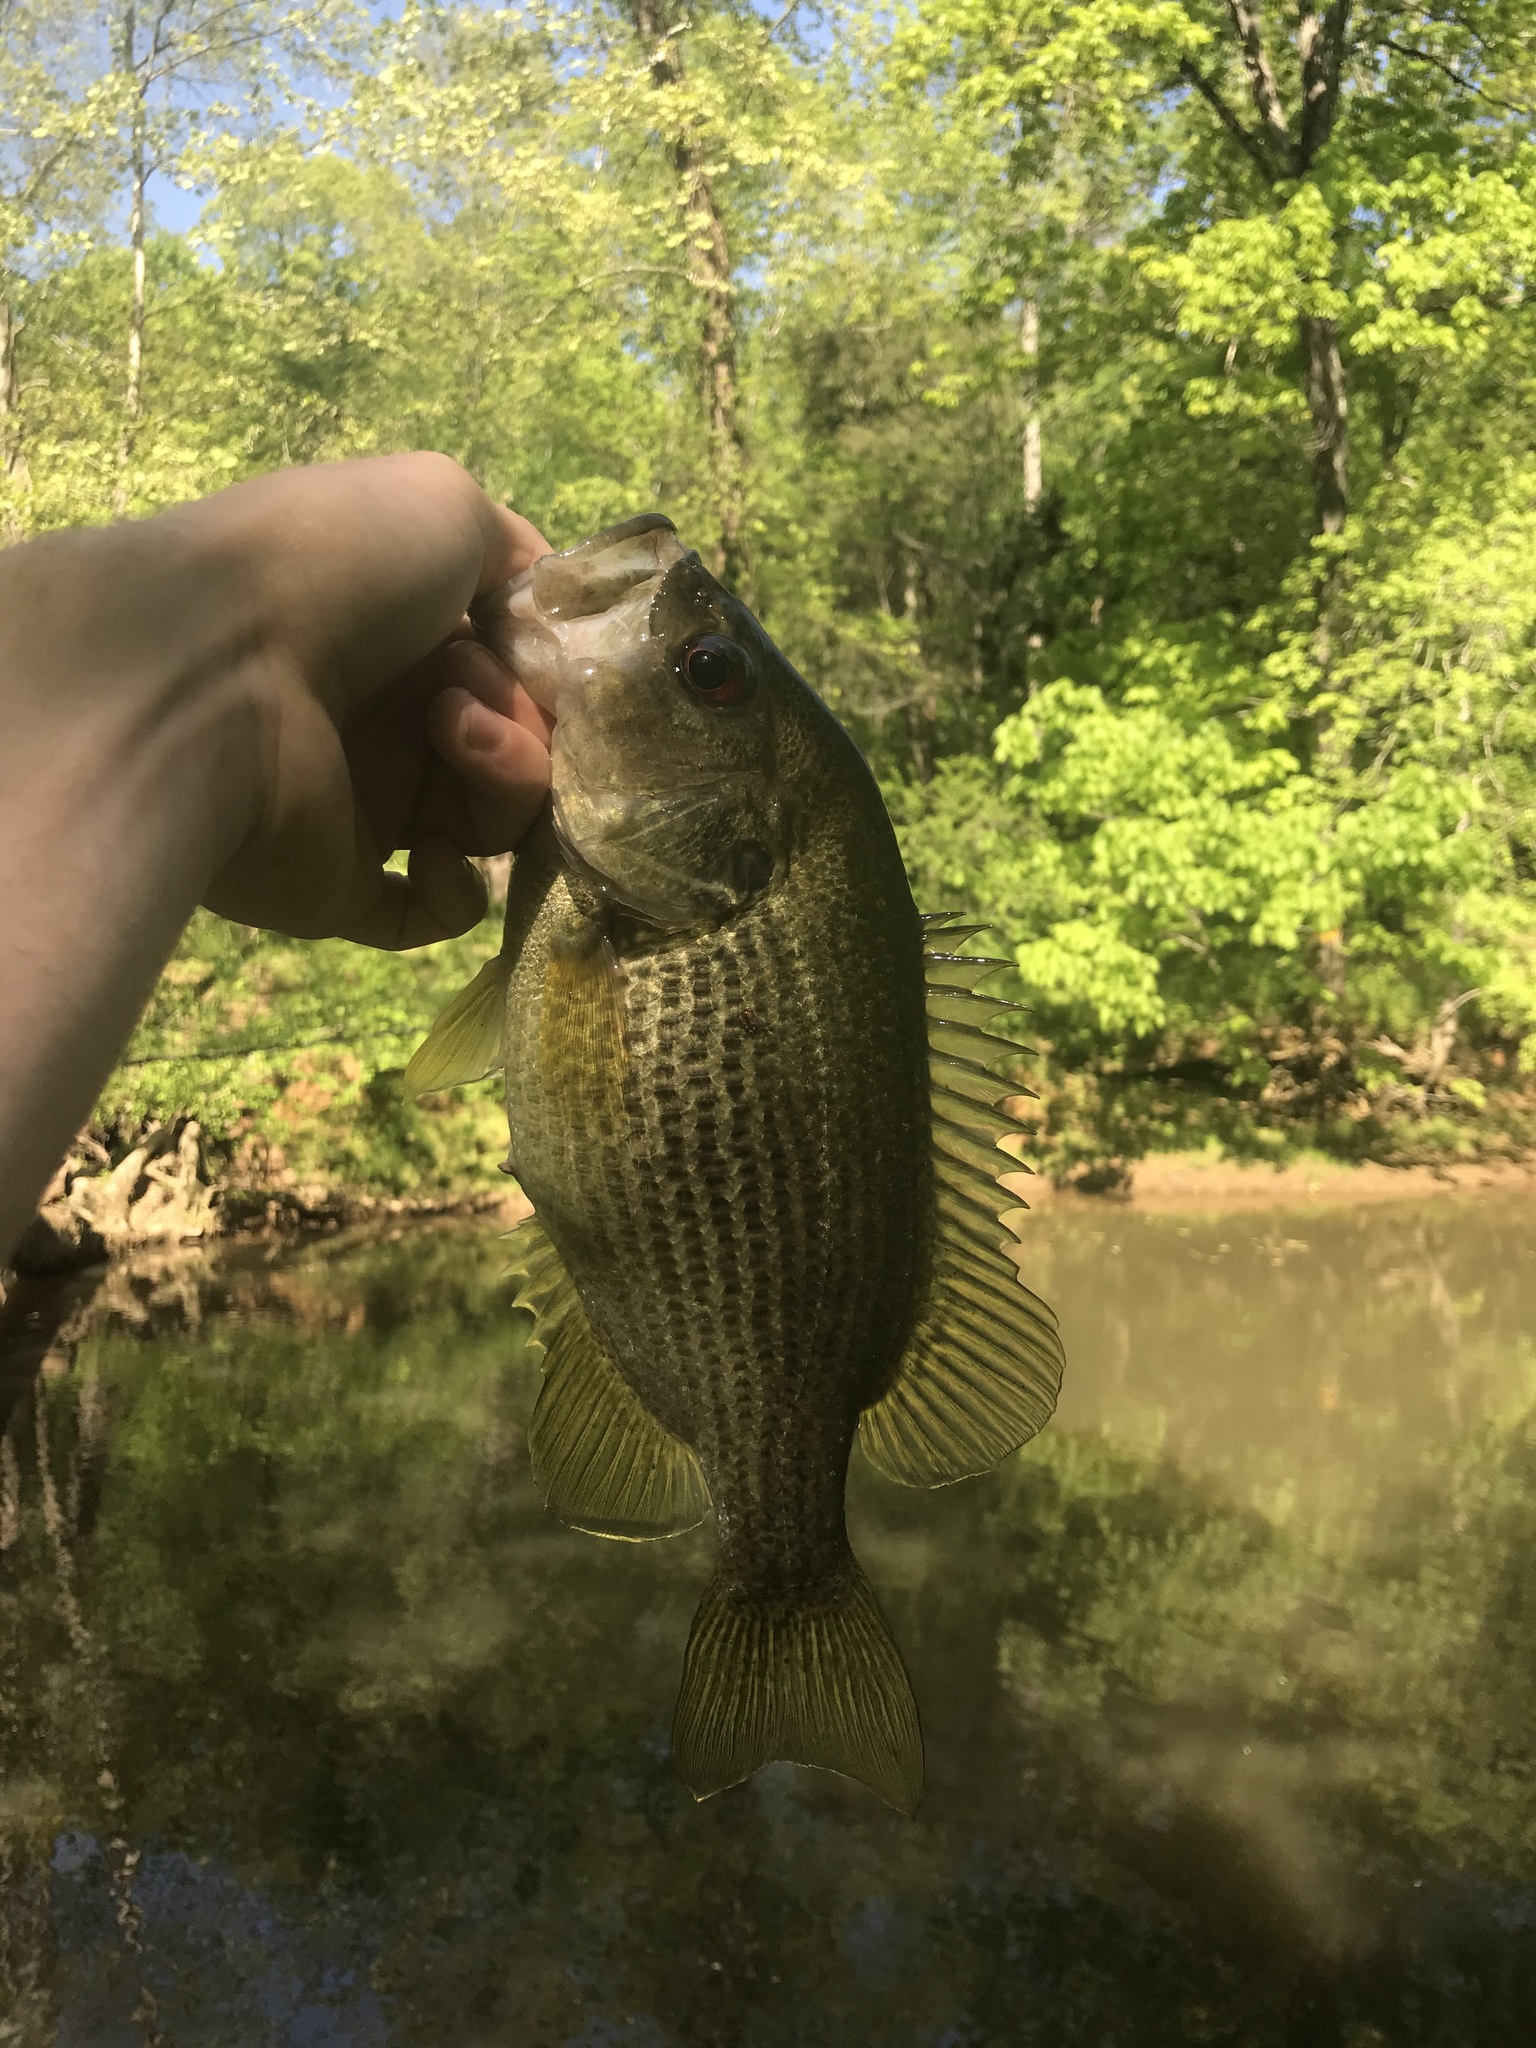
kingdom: Animalia
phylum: Chordata
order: Perciformes
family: Centrarchidae
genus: Ambloplites
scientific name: Ambloplites cavifrons
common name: Roanoke bass
